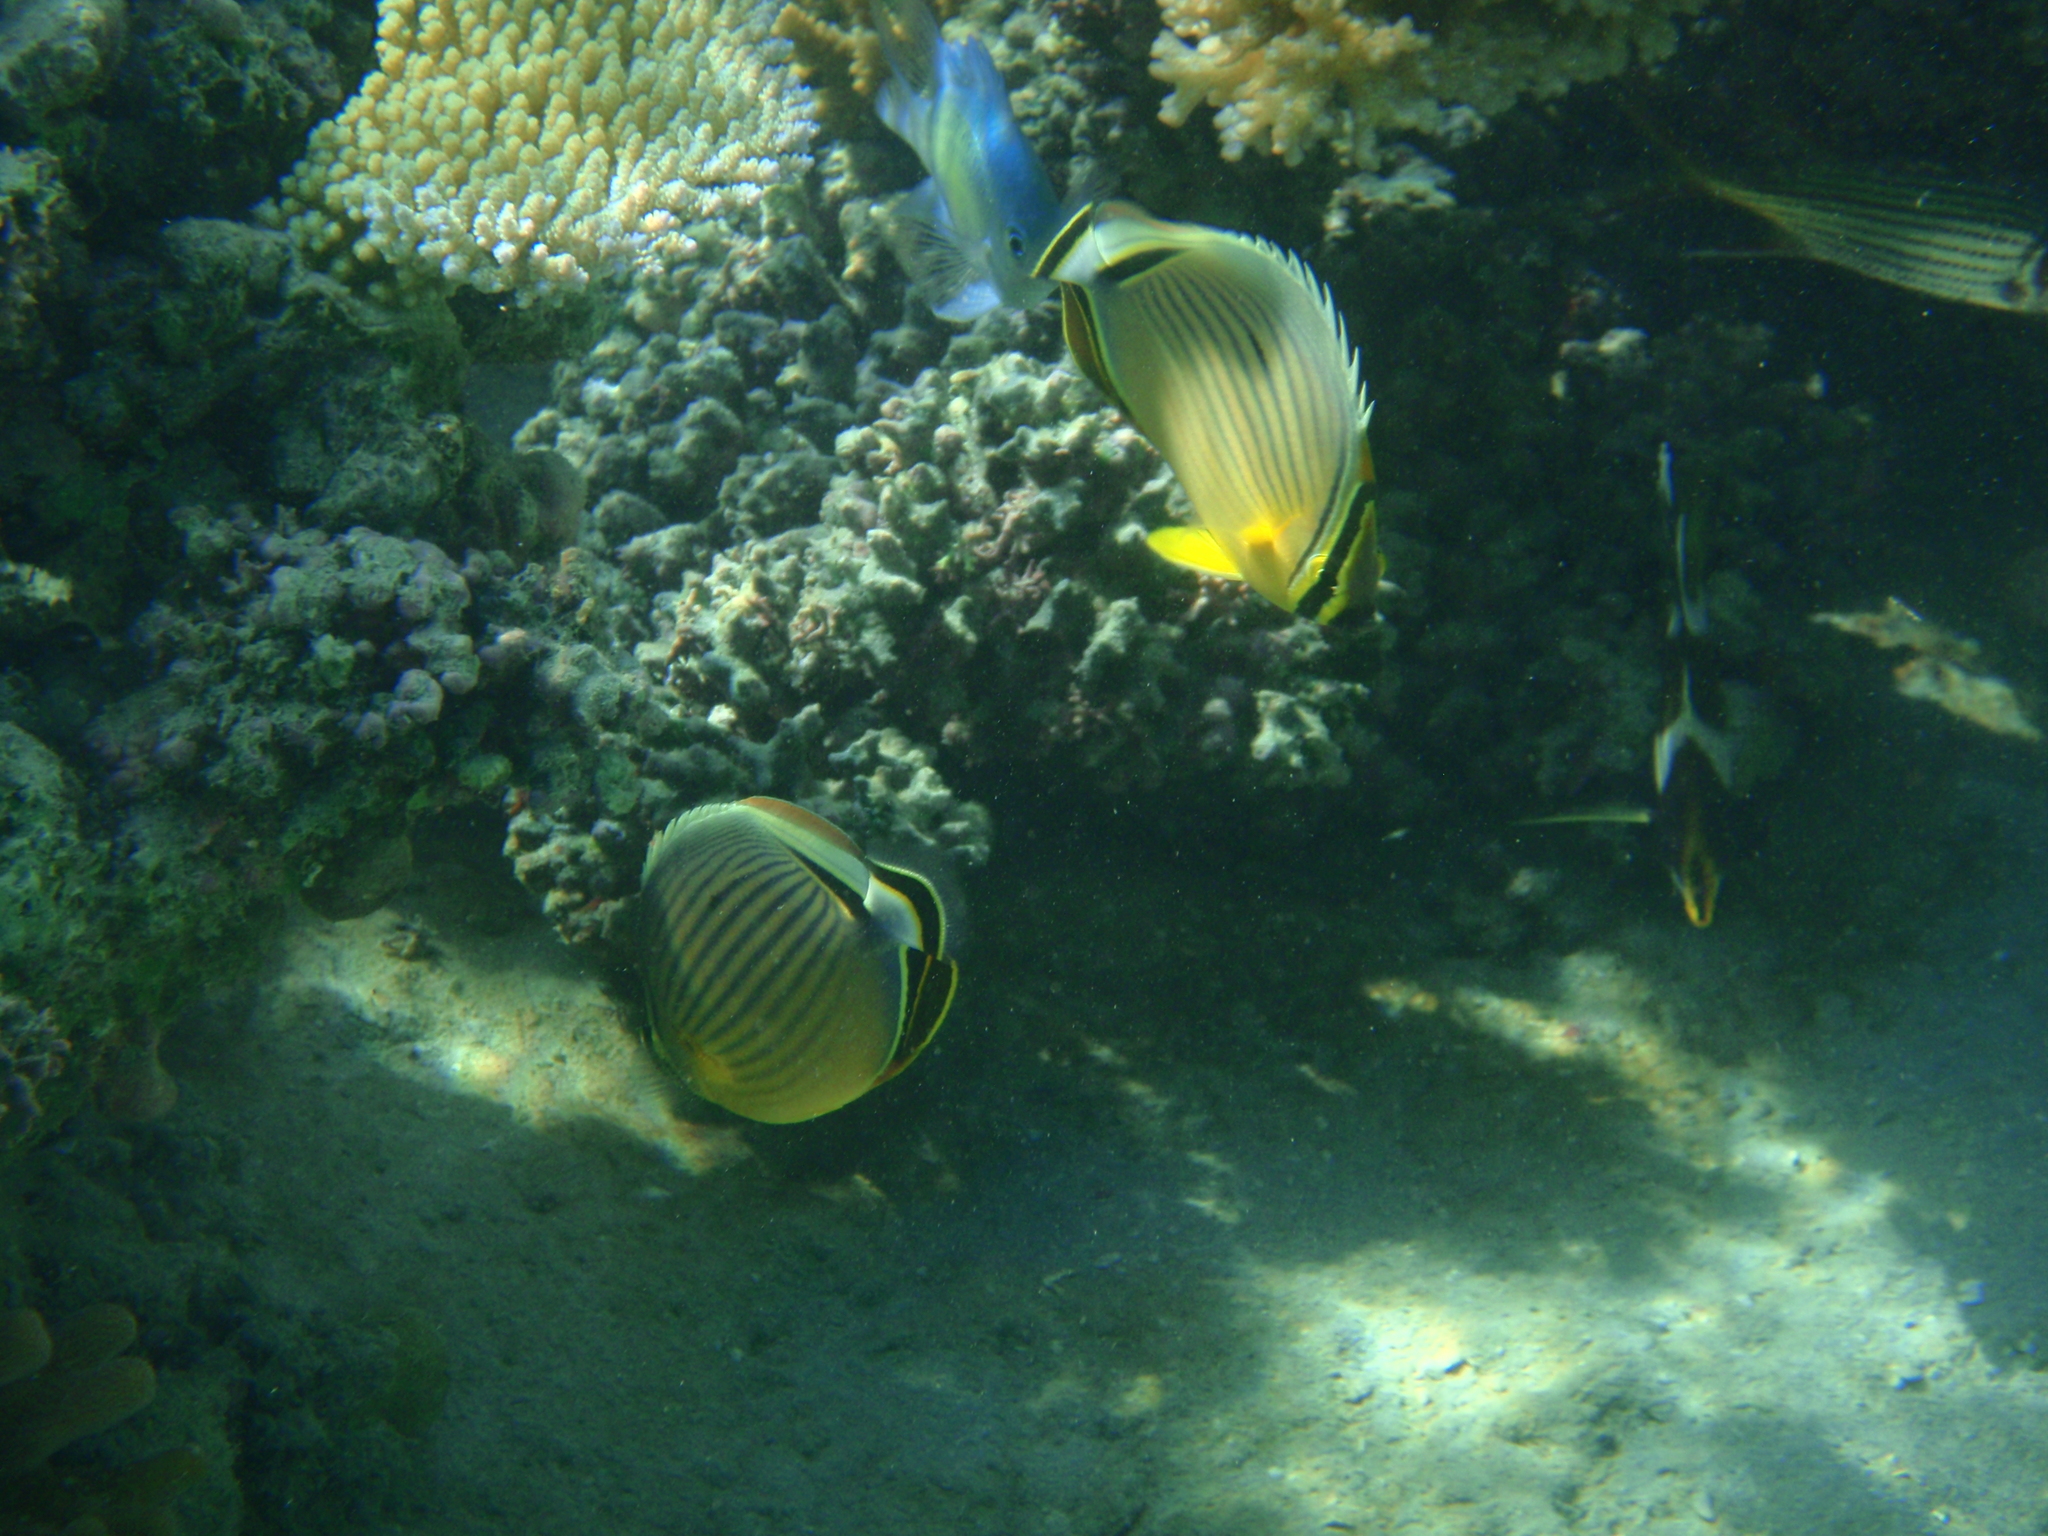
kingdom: Animalia
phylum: Chordata
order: Perciformes
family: Chaetodontidae
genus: Chaetodon
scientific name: Chaetodon lunulatus
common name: Redfin butterflyfish
